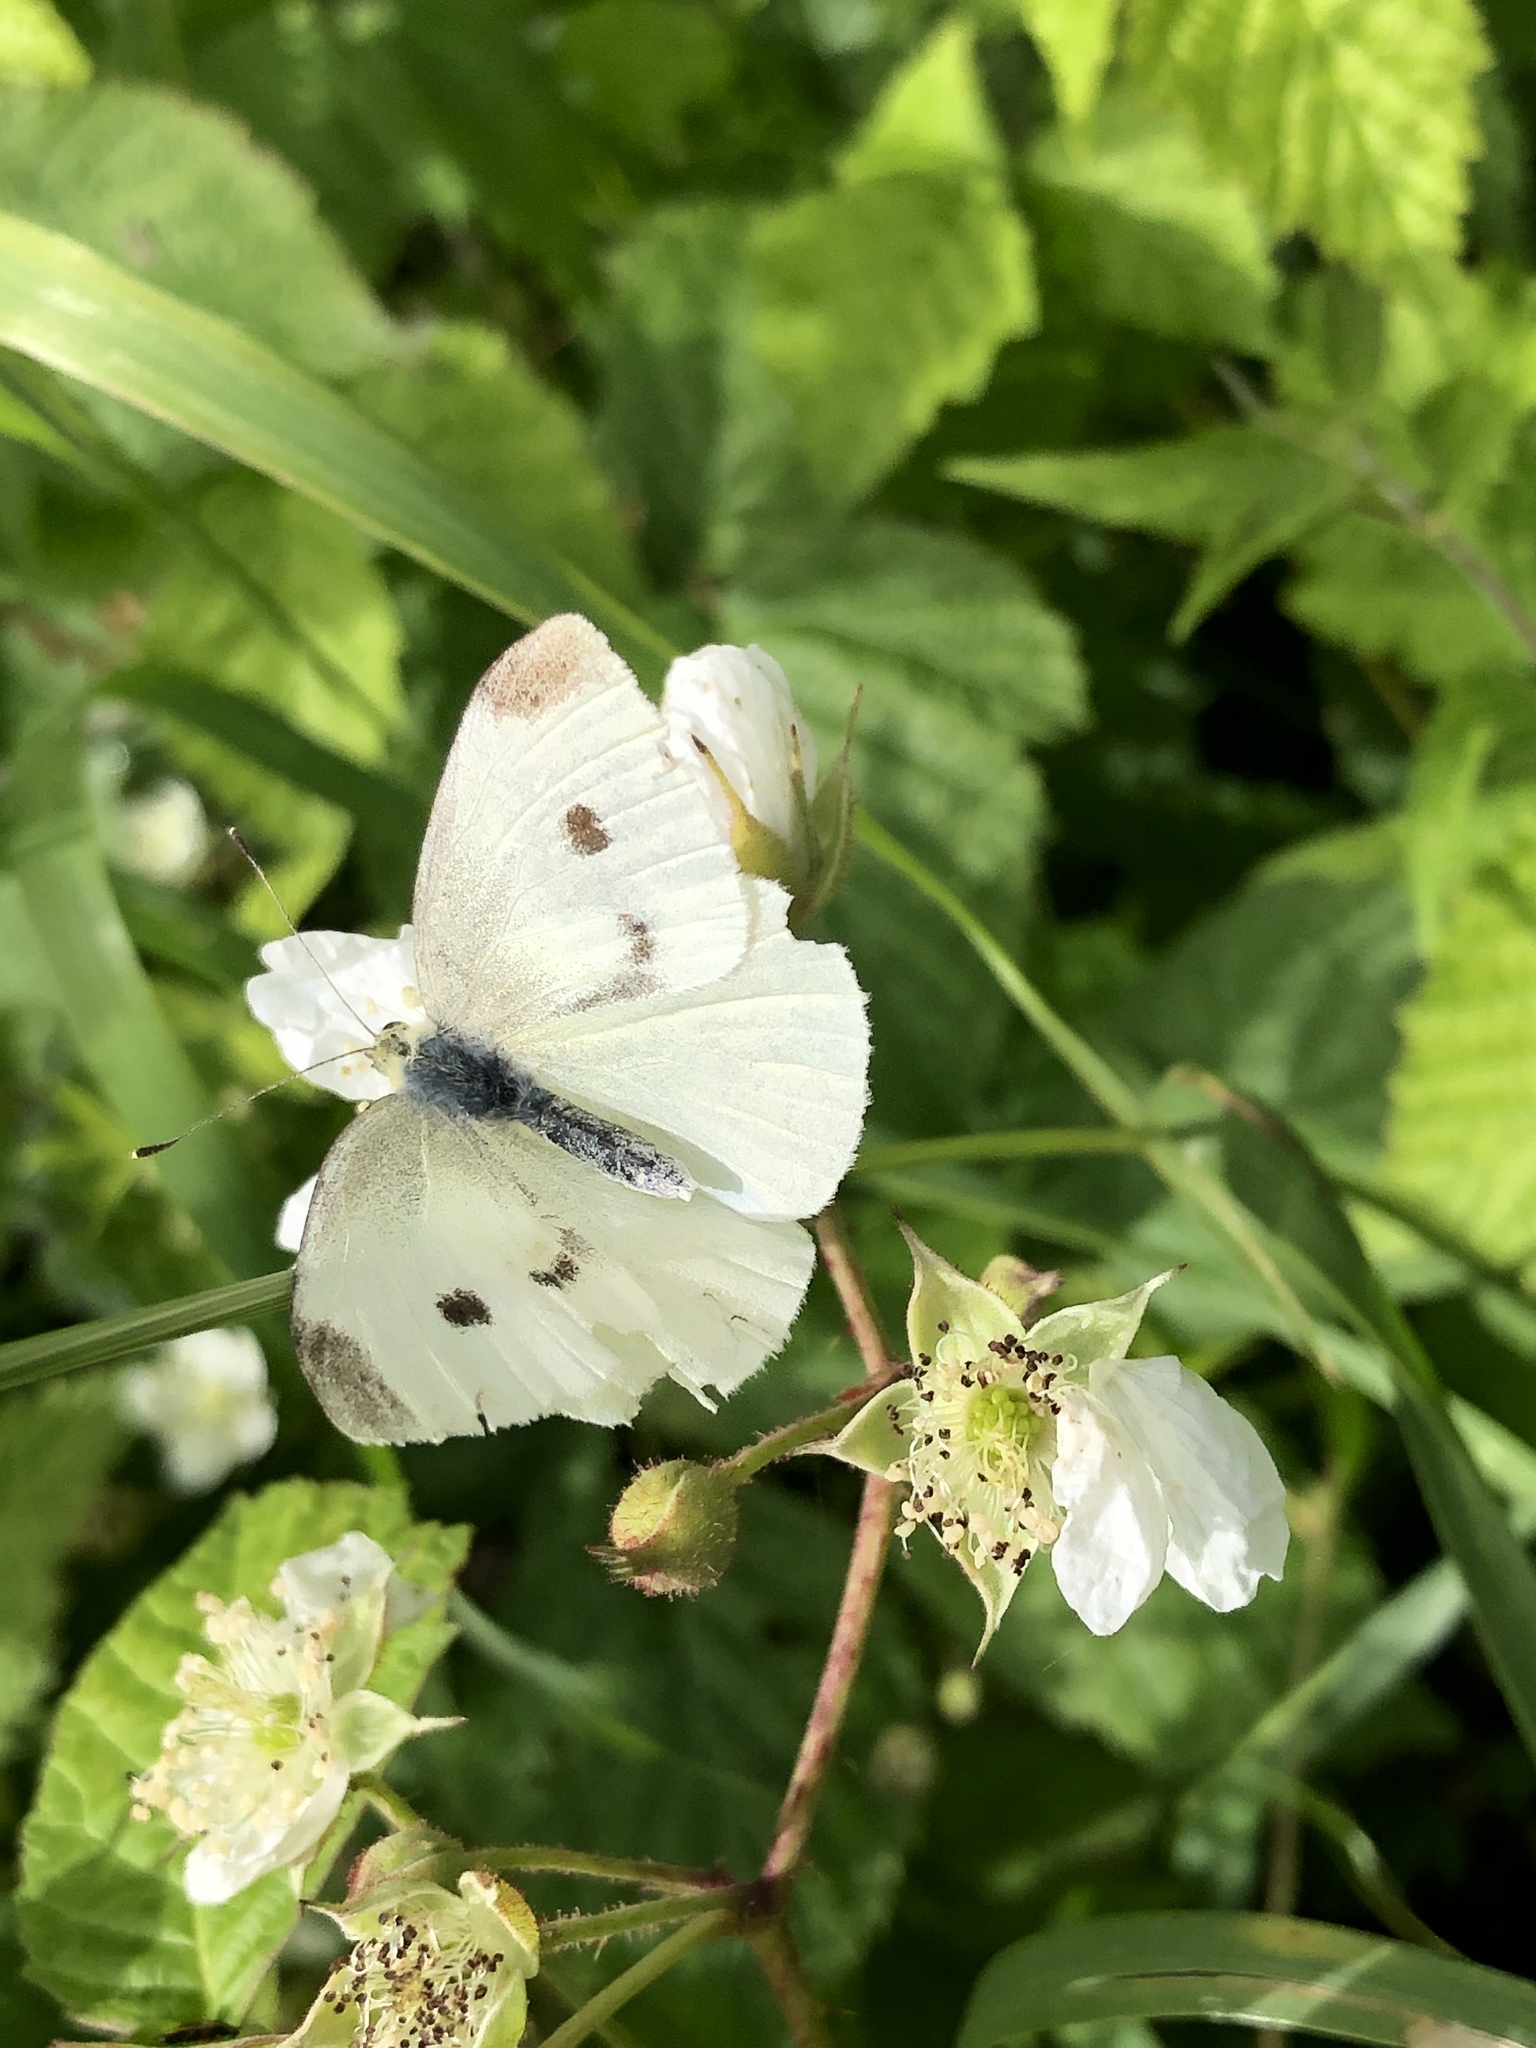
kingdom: Animalia
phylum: Arthropoda
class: Insecta
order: Lepidoptera
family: Pieridae
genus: Pieris
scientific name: Pieris rapae
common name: Small white
